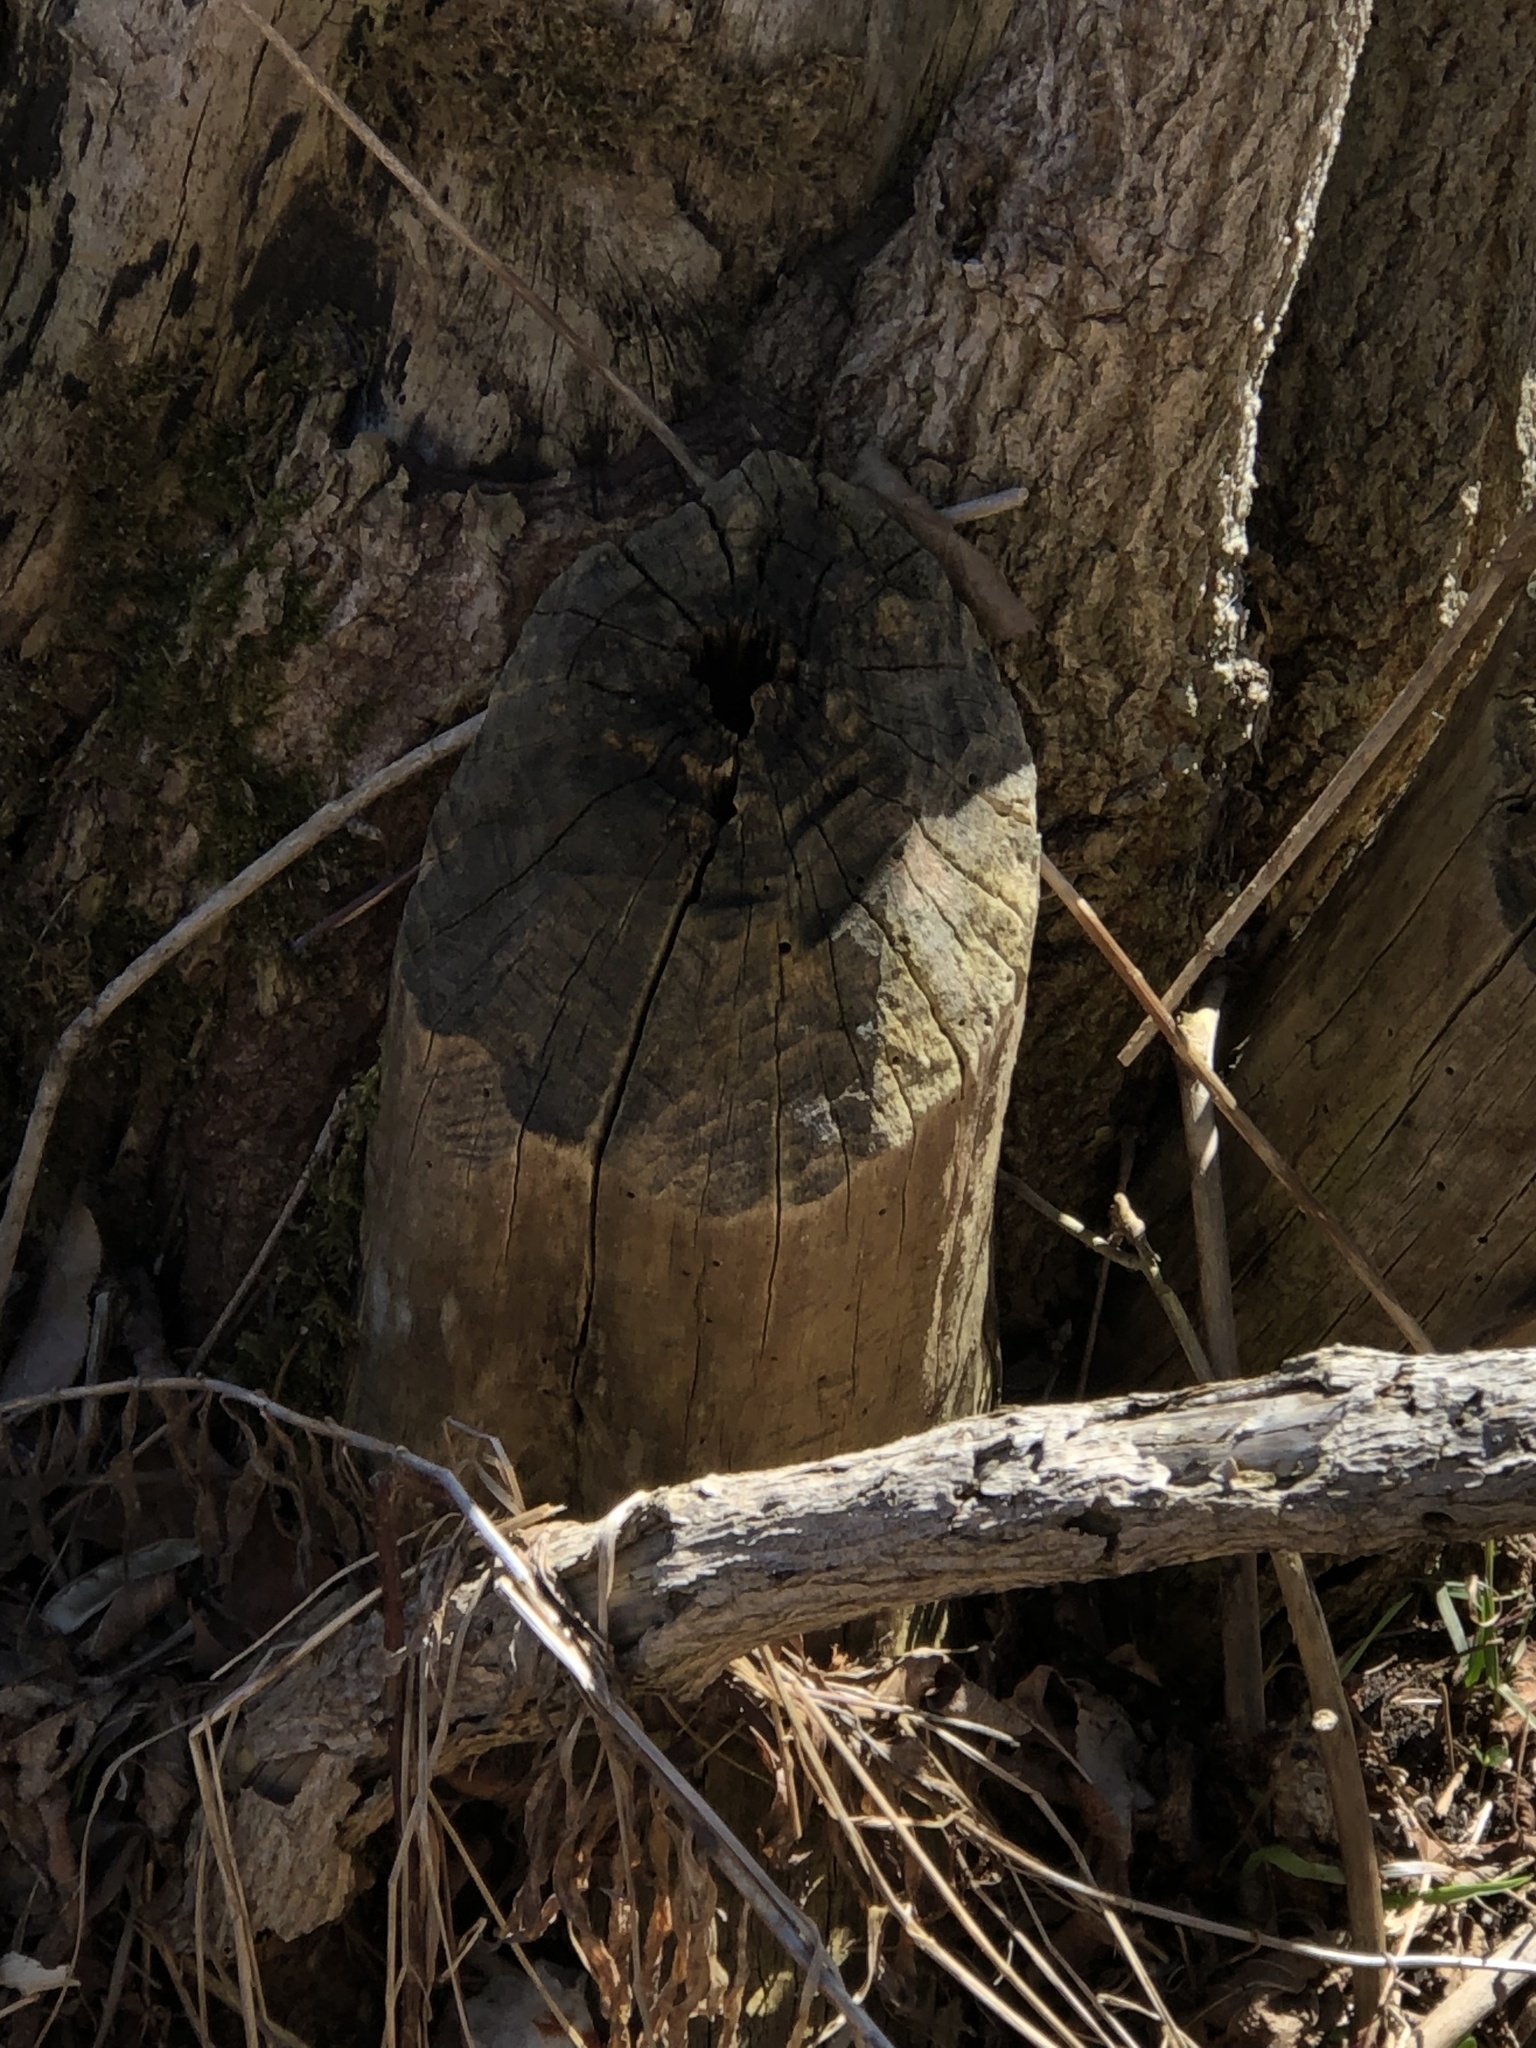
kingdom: Animalia
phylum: Chordata
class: Mammalia
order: Rodentia
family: Castoridae
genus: Castor
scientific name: Castor canadensis
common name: American beaver
